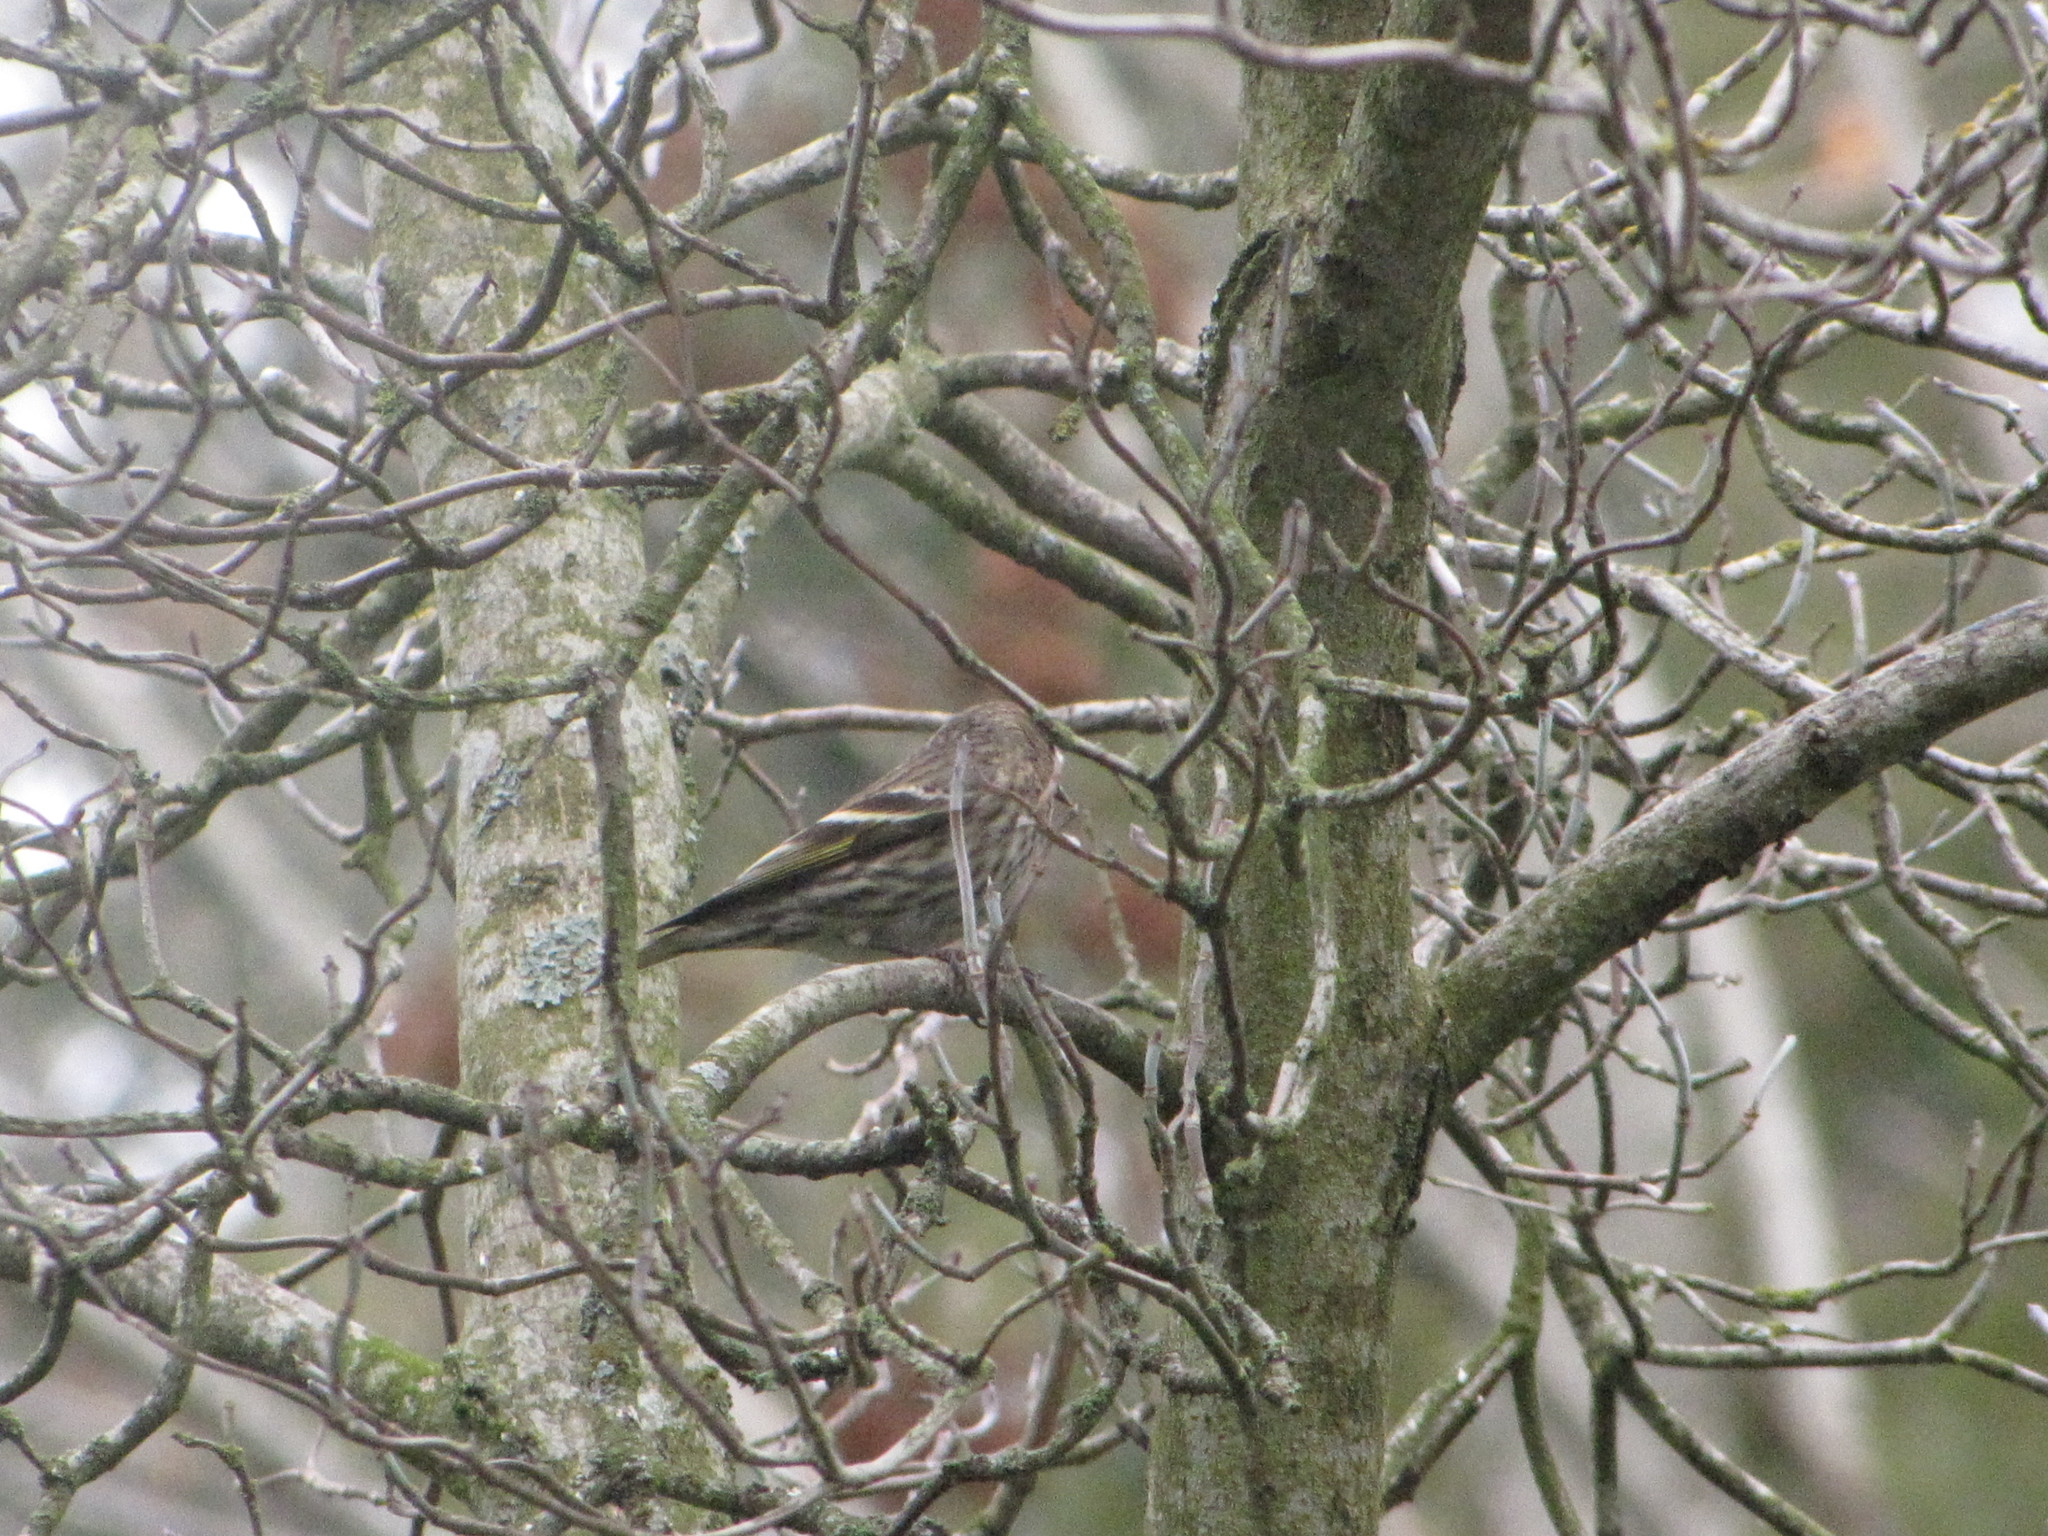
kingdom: Animalia
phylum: Chordata
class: Aves
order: Passeriformes
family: Fringillidae
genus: Spinus
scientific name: Spinus pinus
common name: Pine siskin
